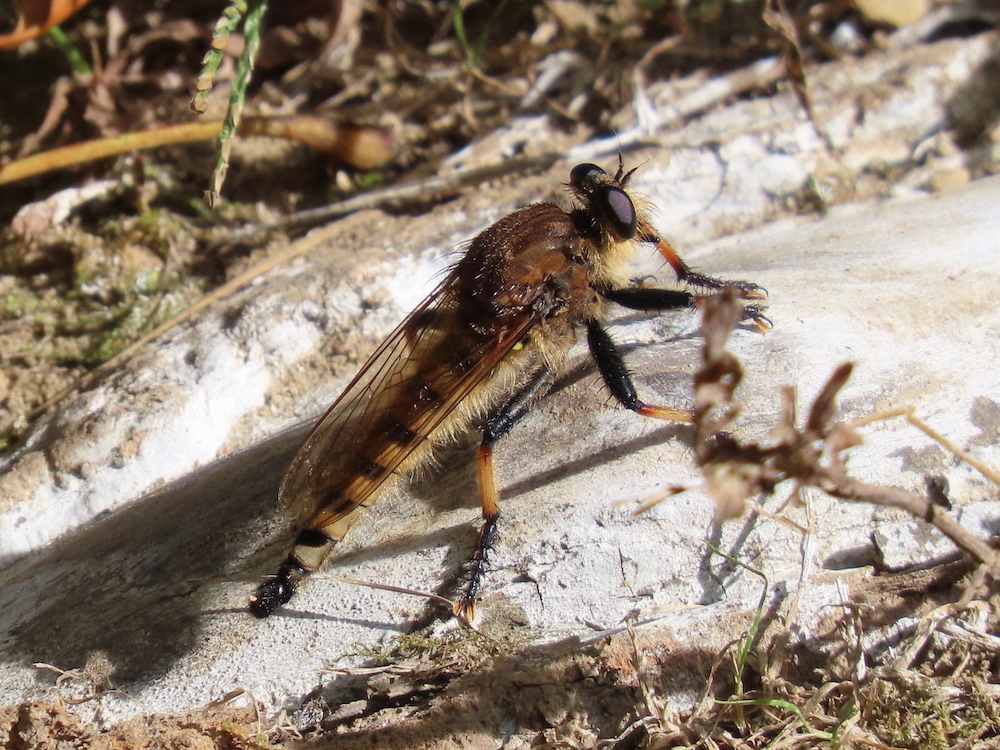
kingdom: Animalia
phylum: Arthropoda
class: Insecta
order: Diptera
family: Asilidae
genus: Promachus
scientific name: Promachus rufipes
